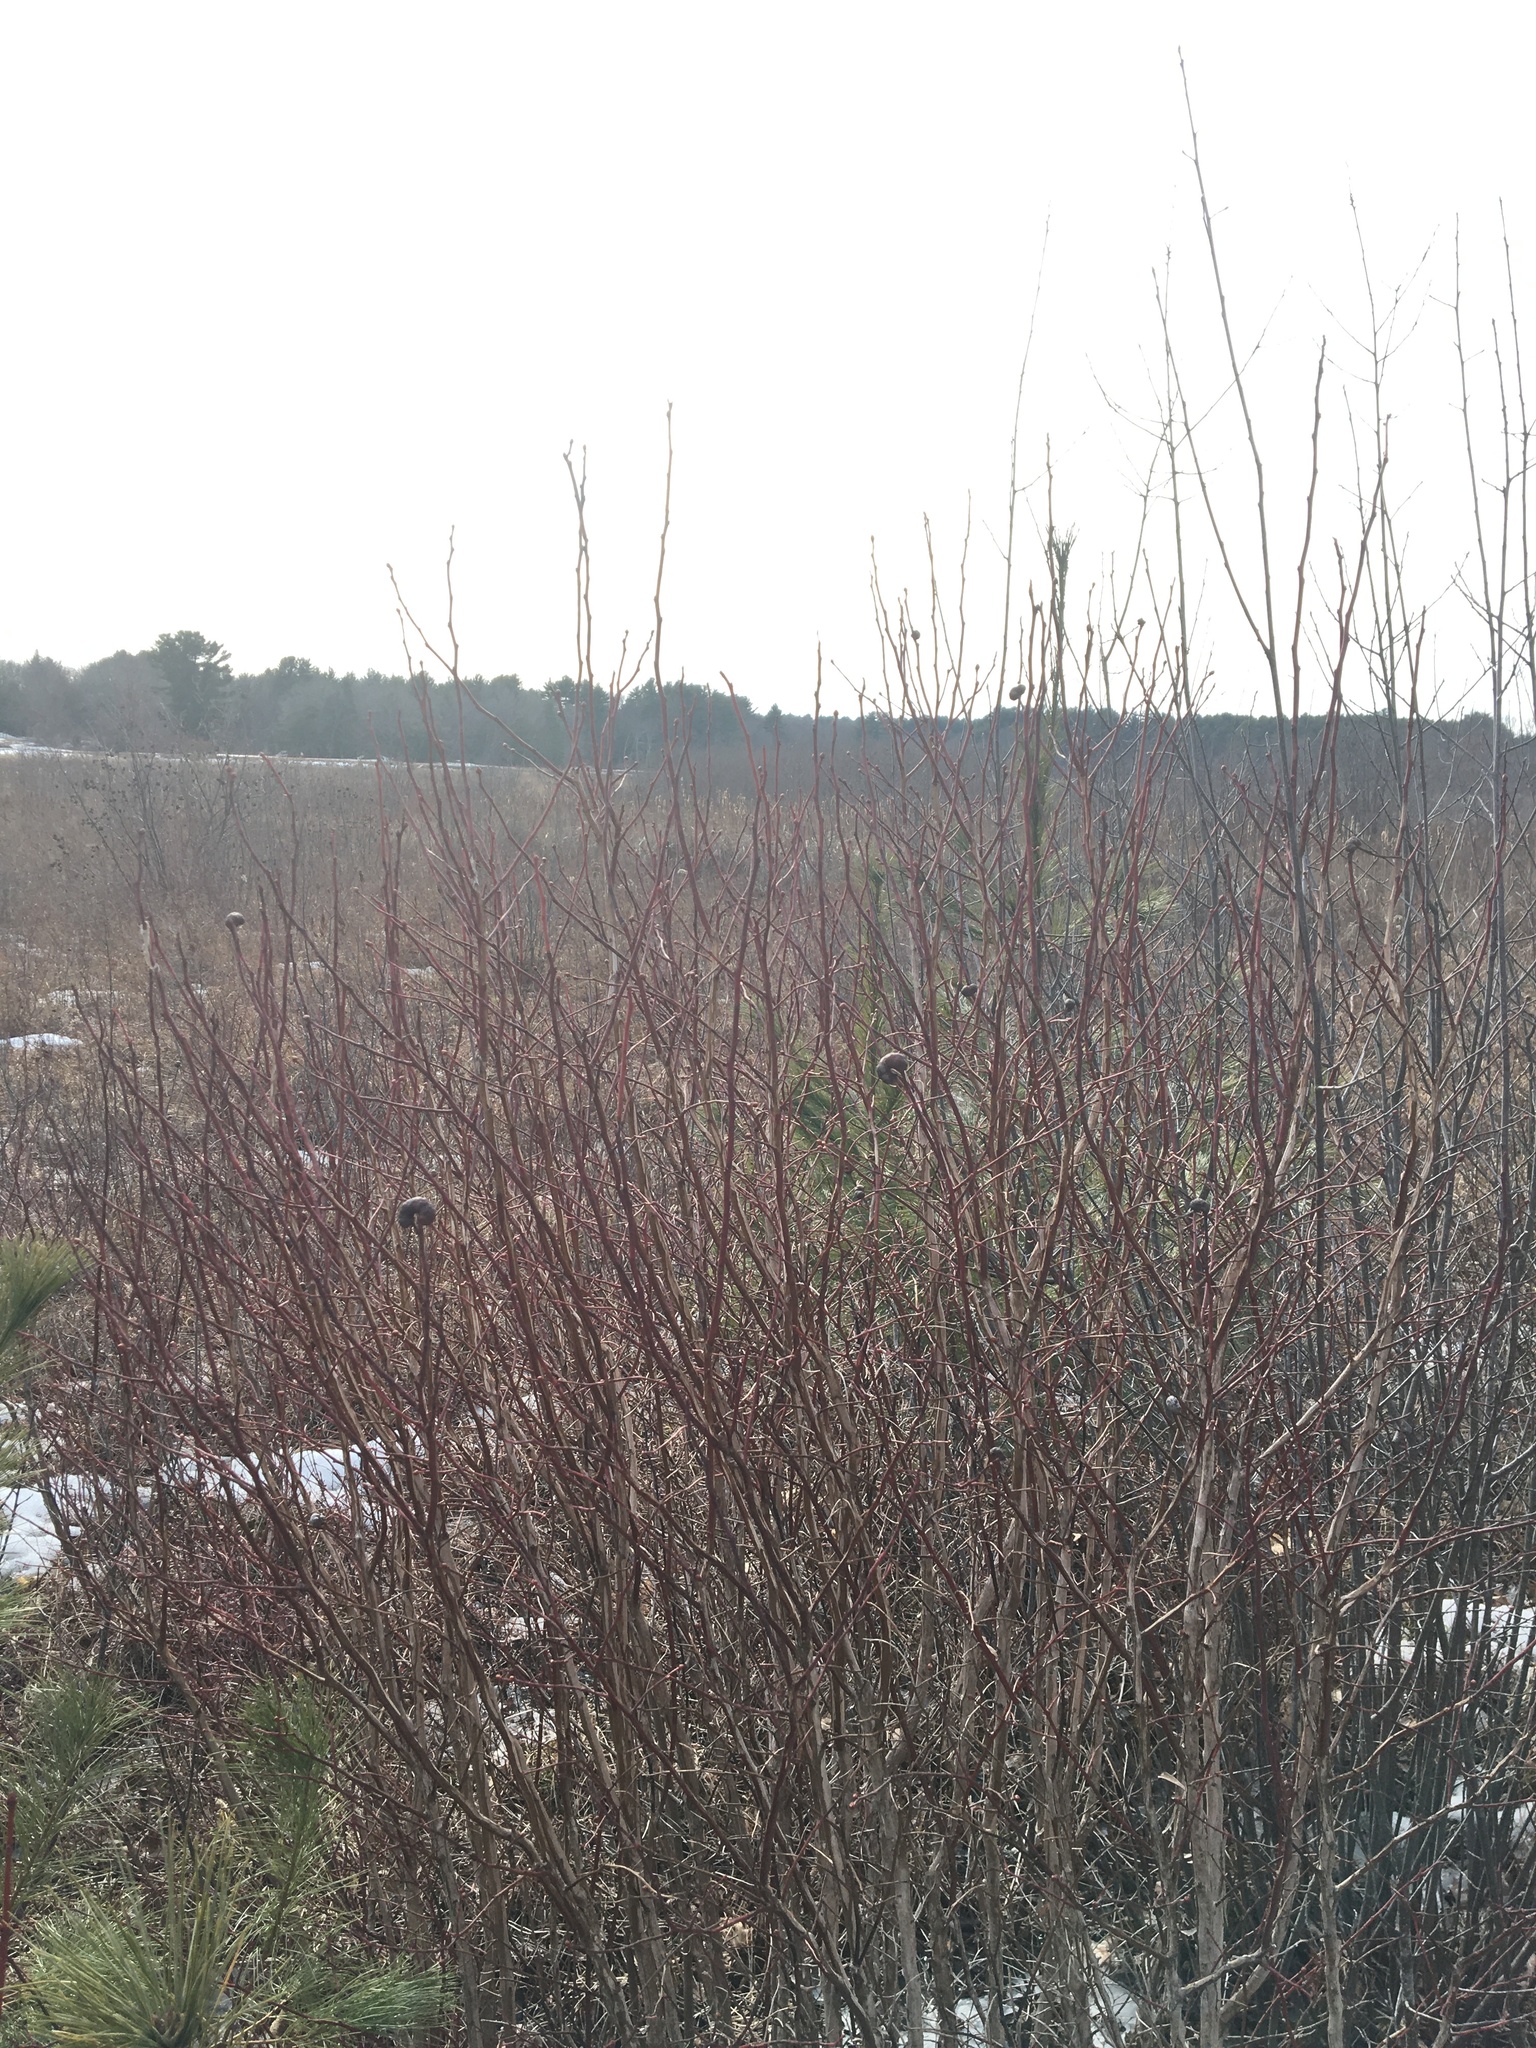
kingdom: Animalia
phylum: Arthropoda
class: Insecta
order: Hymenoptera
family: Pteromalidae
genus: Hemadas
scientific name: Hemadas nubilipennis
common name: Blueberry stem gall wasp
